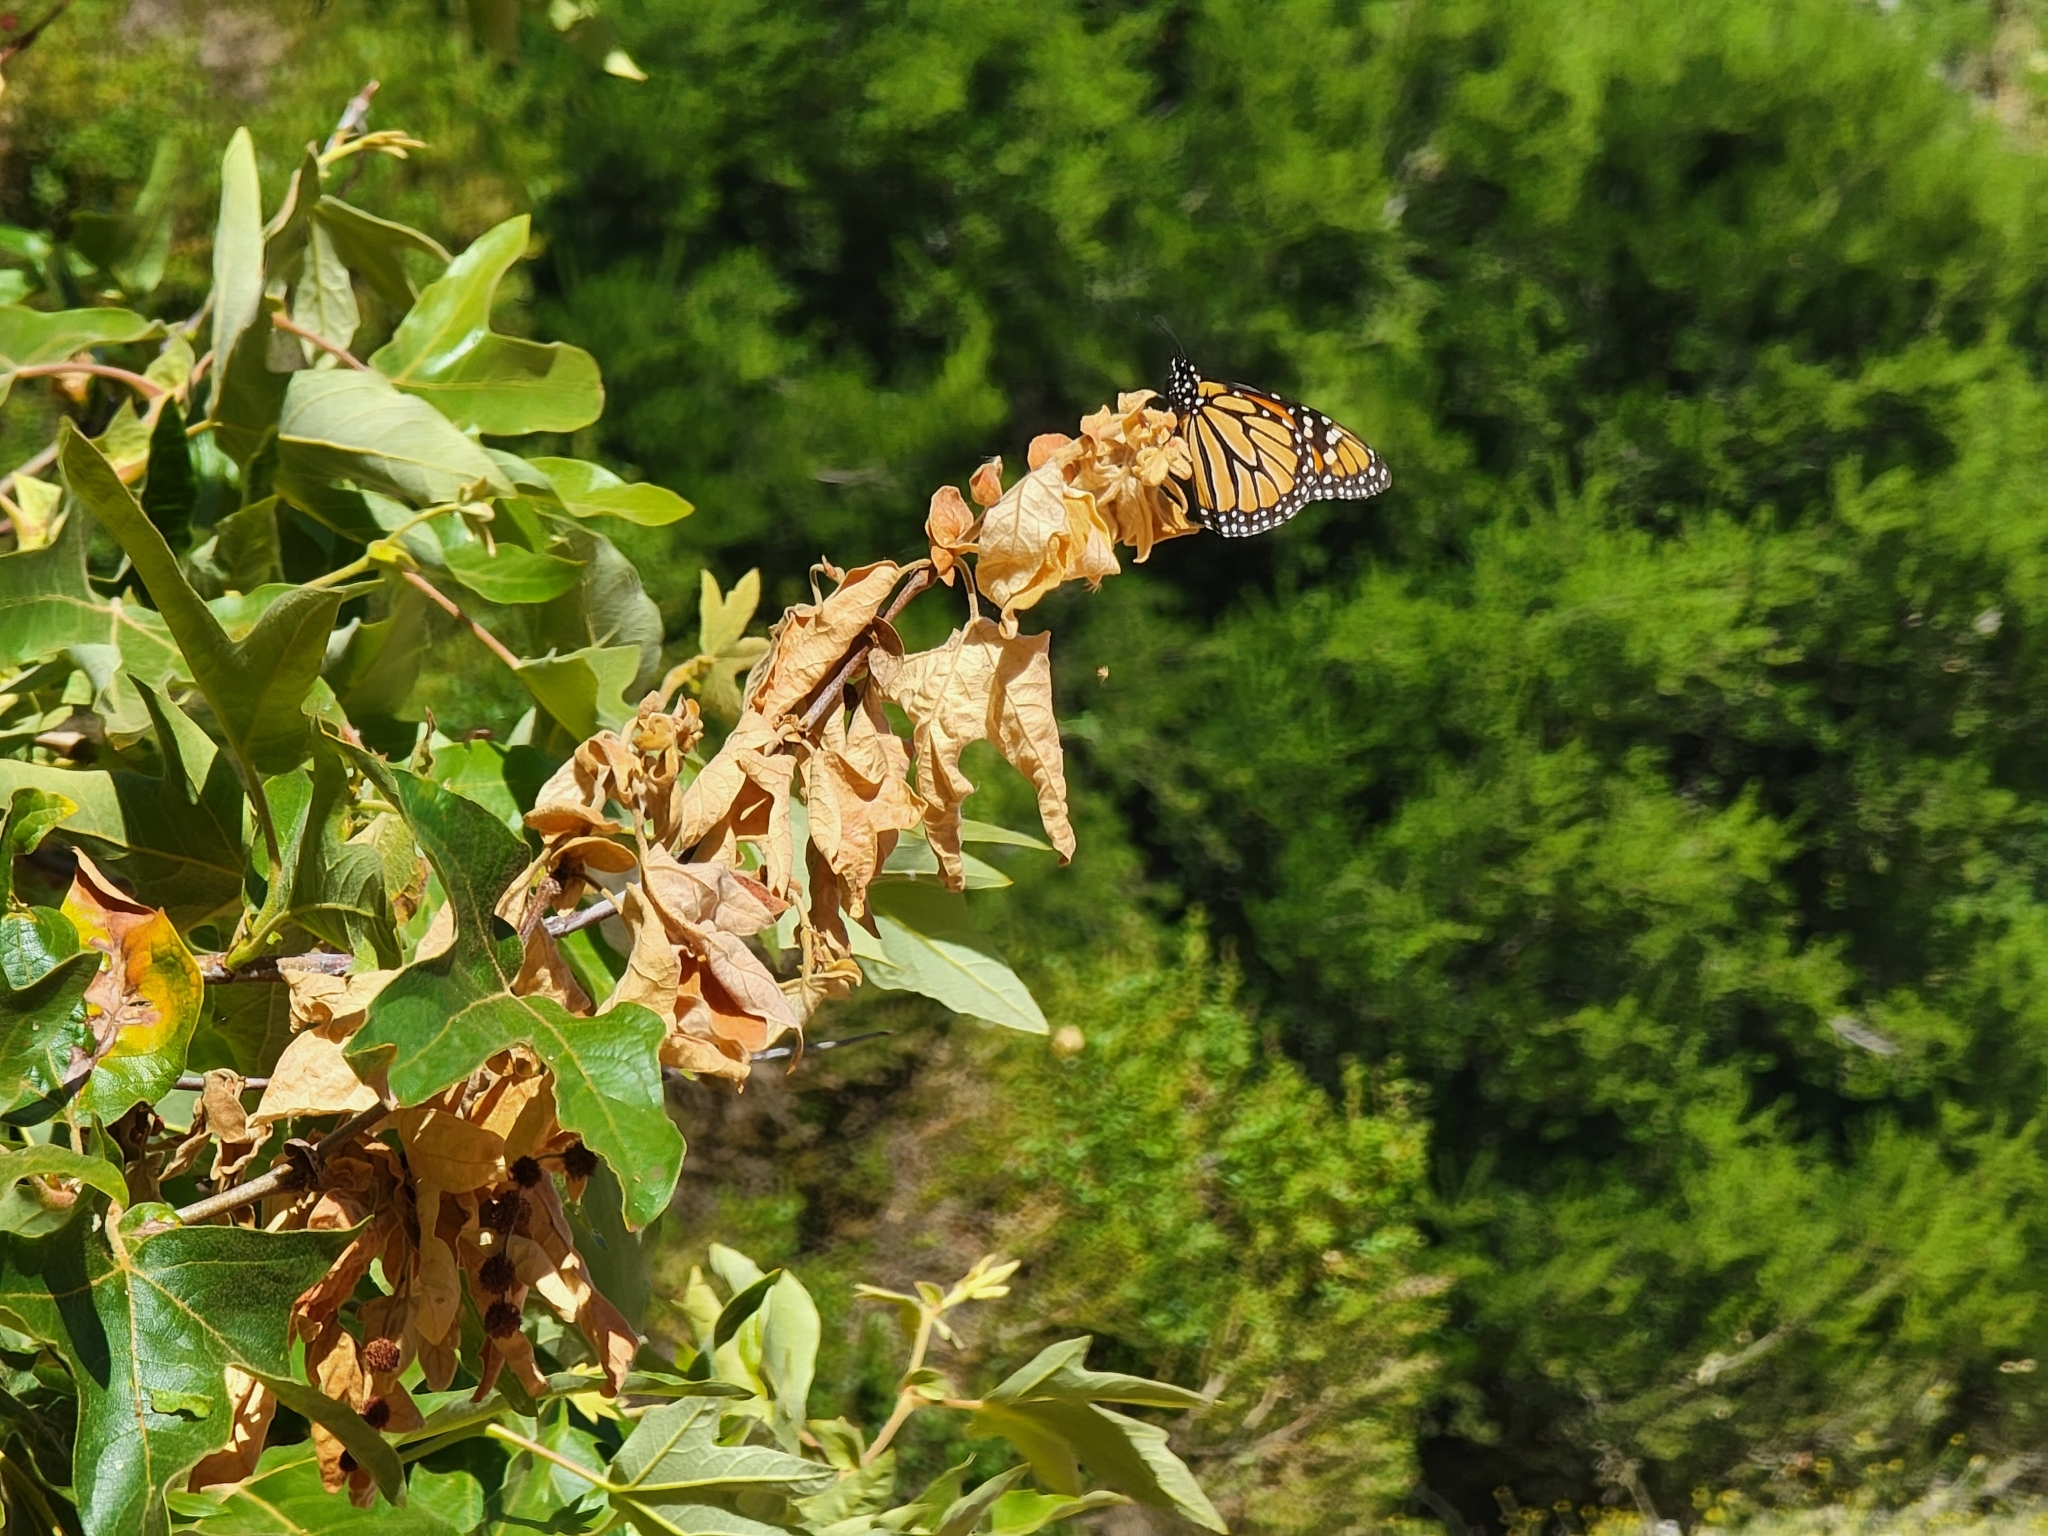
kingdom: Animalia
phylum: Arthropoda
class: Insecta
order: Lepidoptera
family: Nymphalidae
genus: Danaus
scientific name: Danaus plexippus
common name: Monarch
